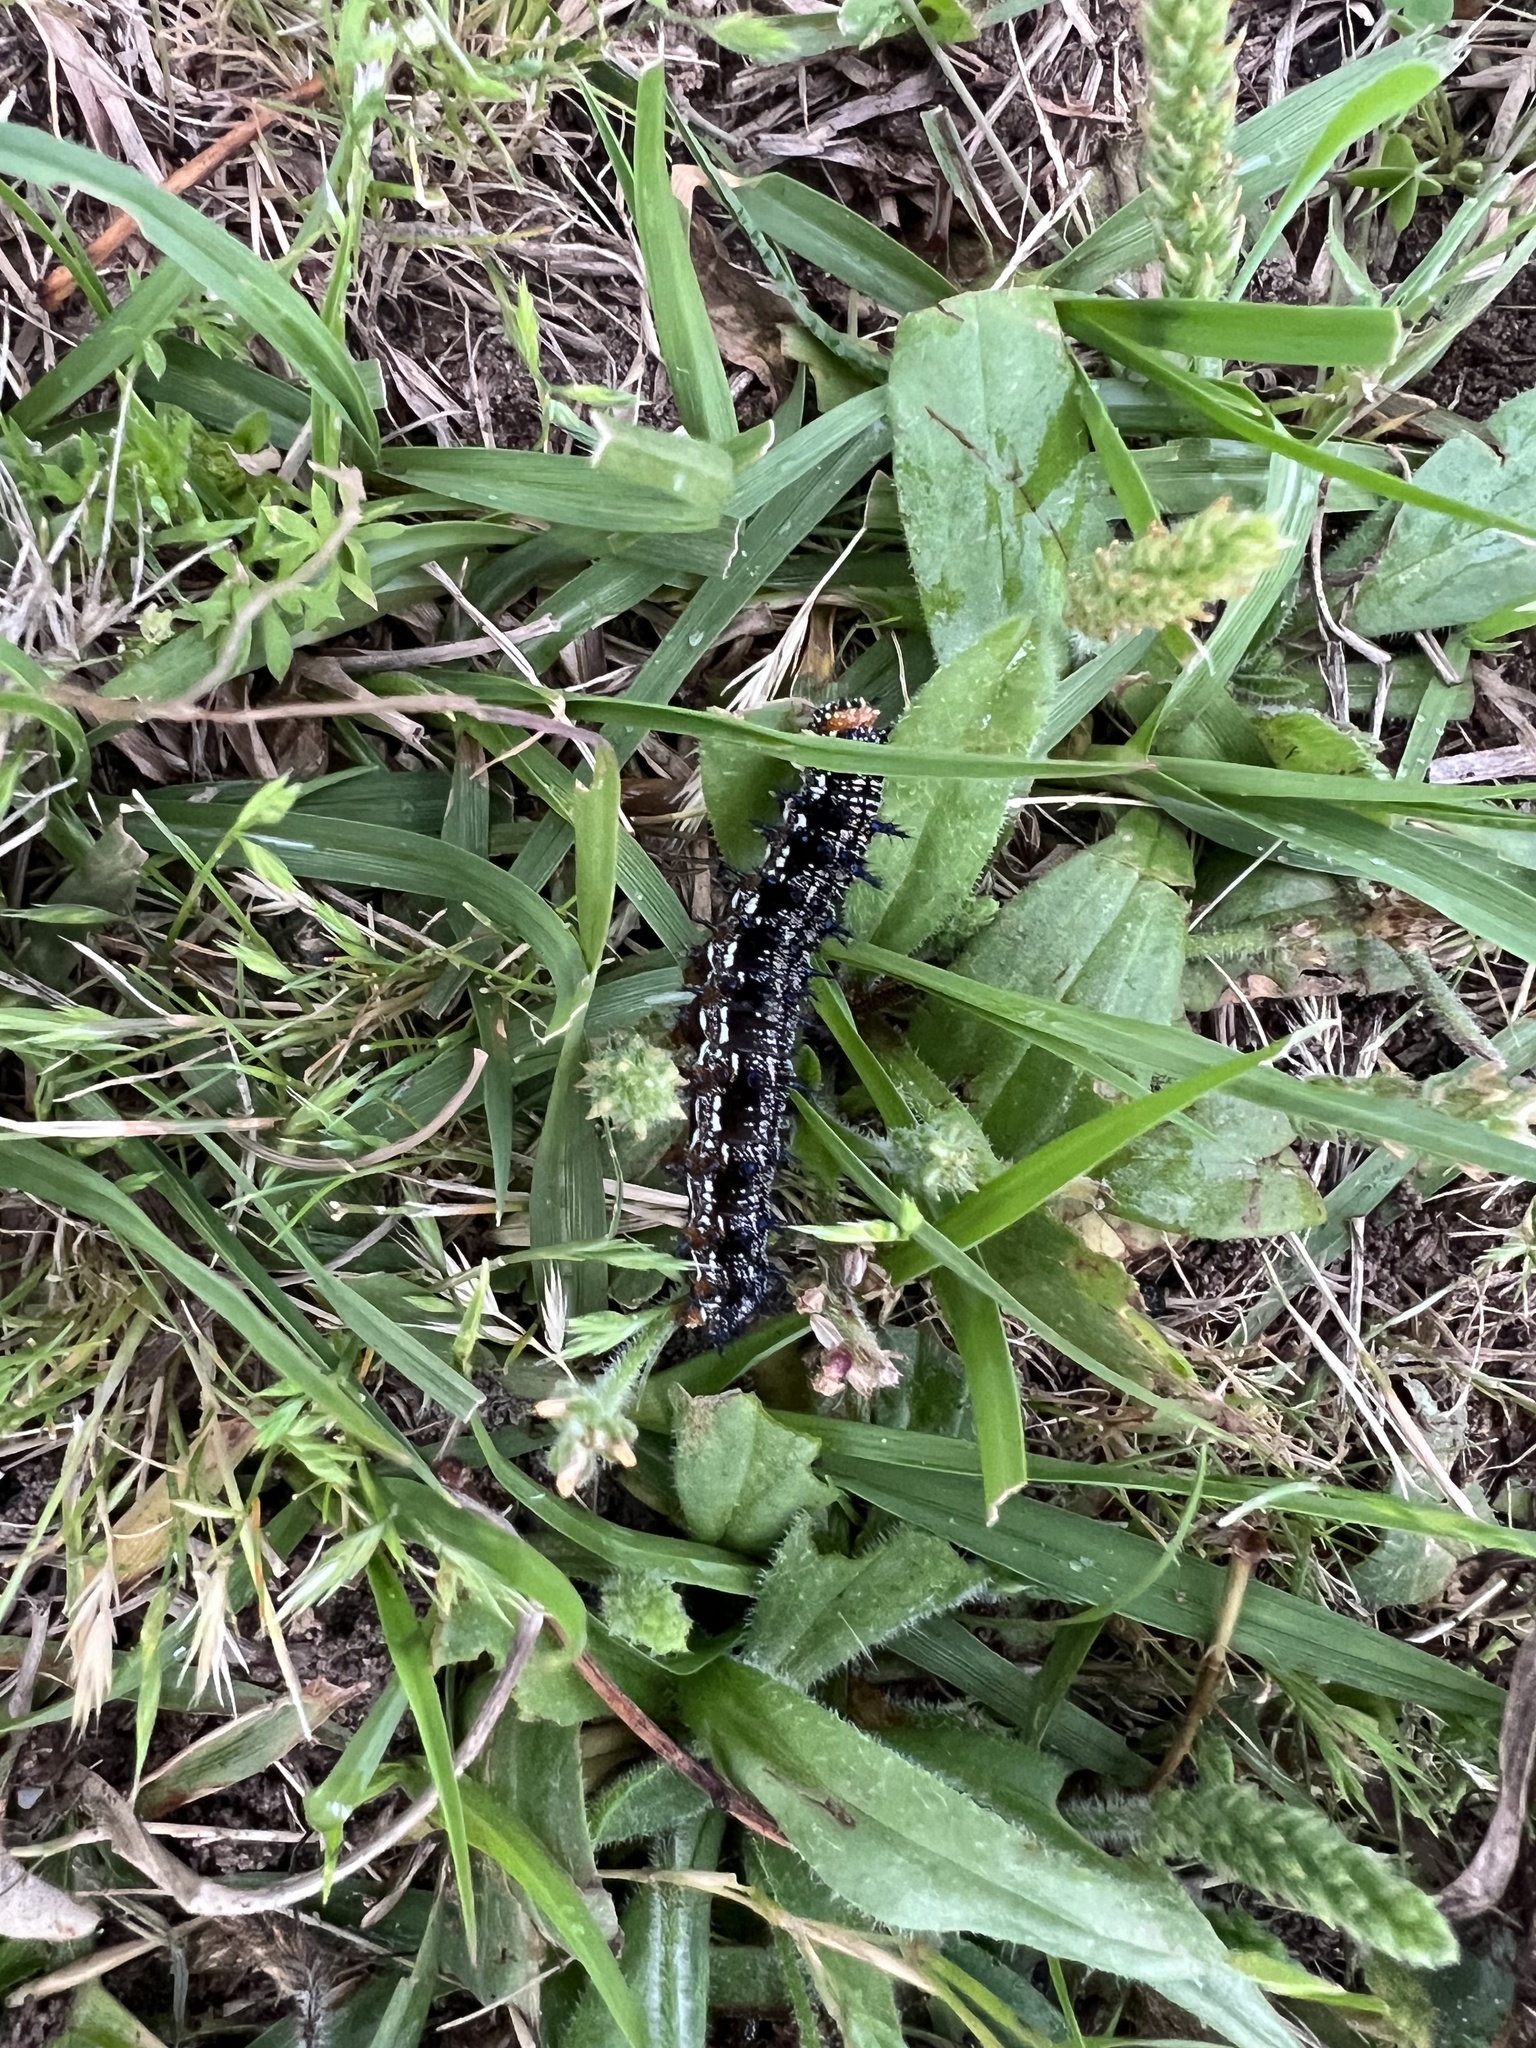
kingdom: Animalia
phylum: Arthropoda
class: Insecta
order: Lepidoptera
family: Nymphalidae
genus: Junonia
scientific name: Junonia coenia
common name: Common buckeye
